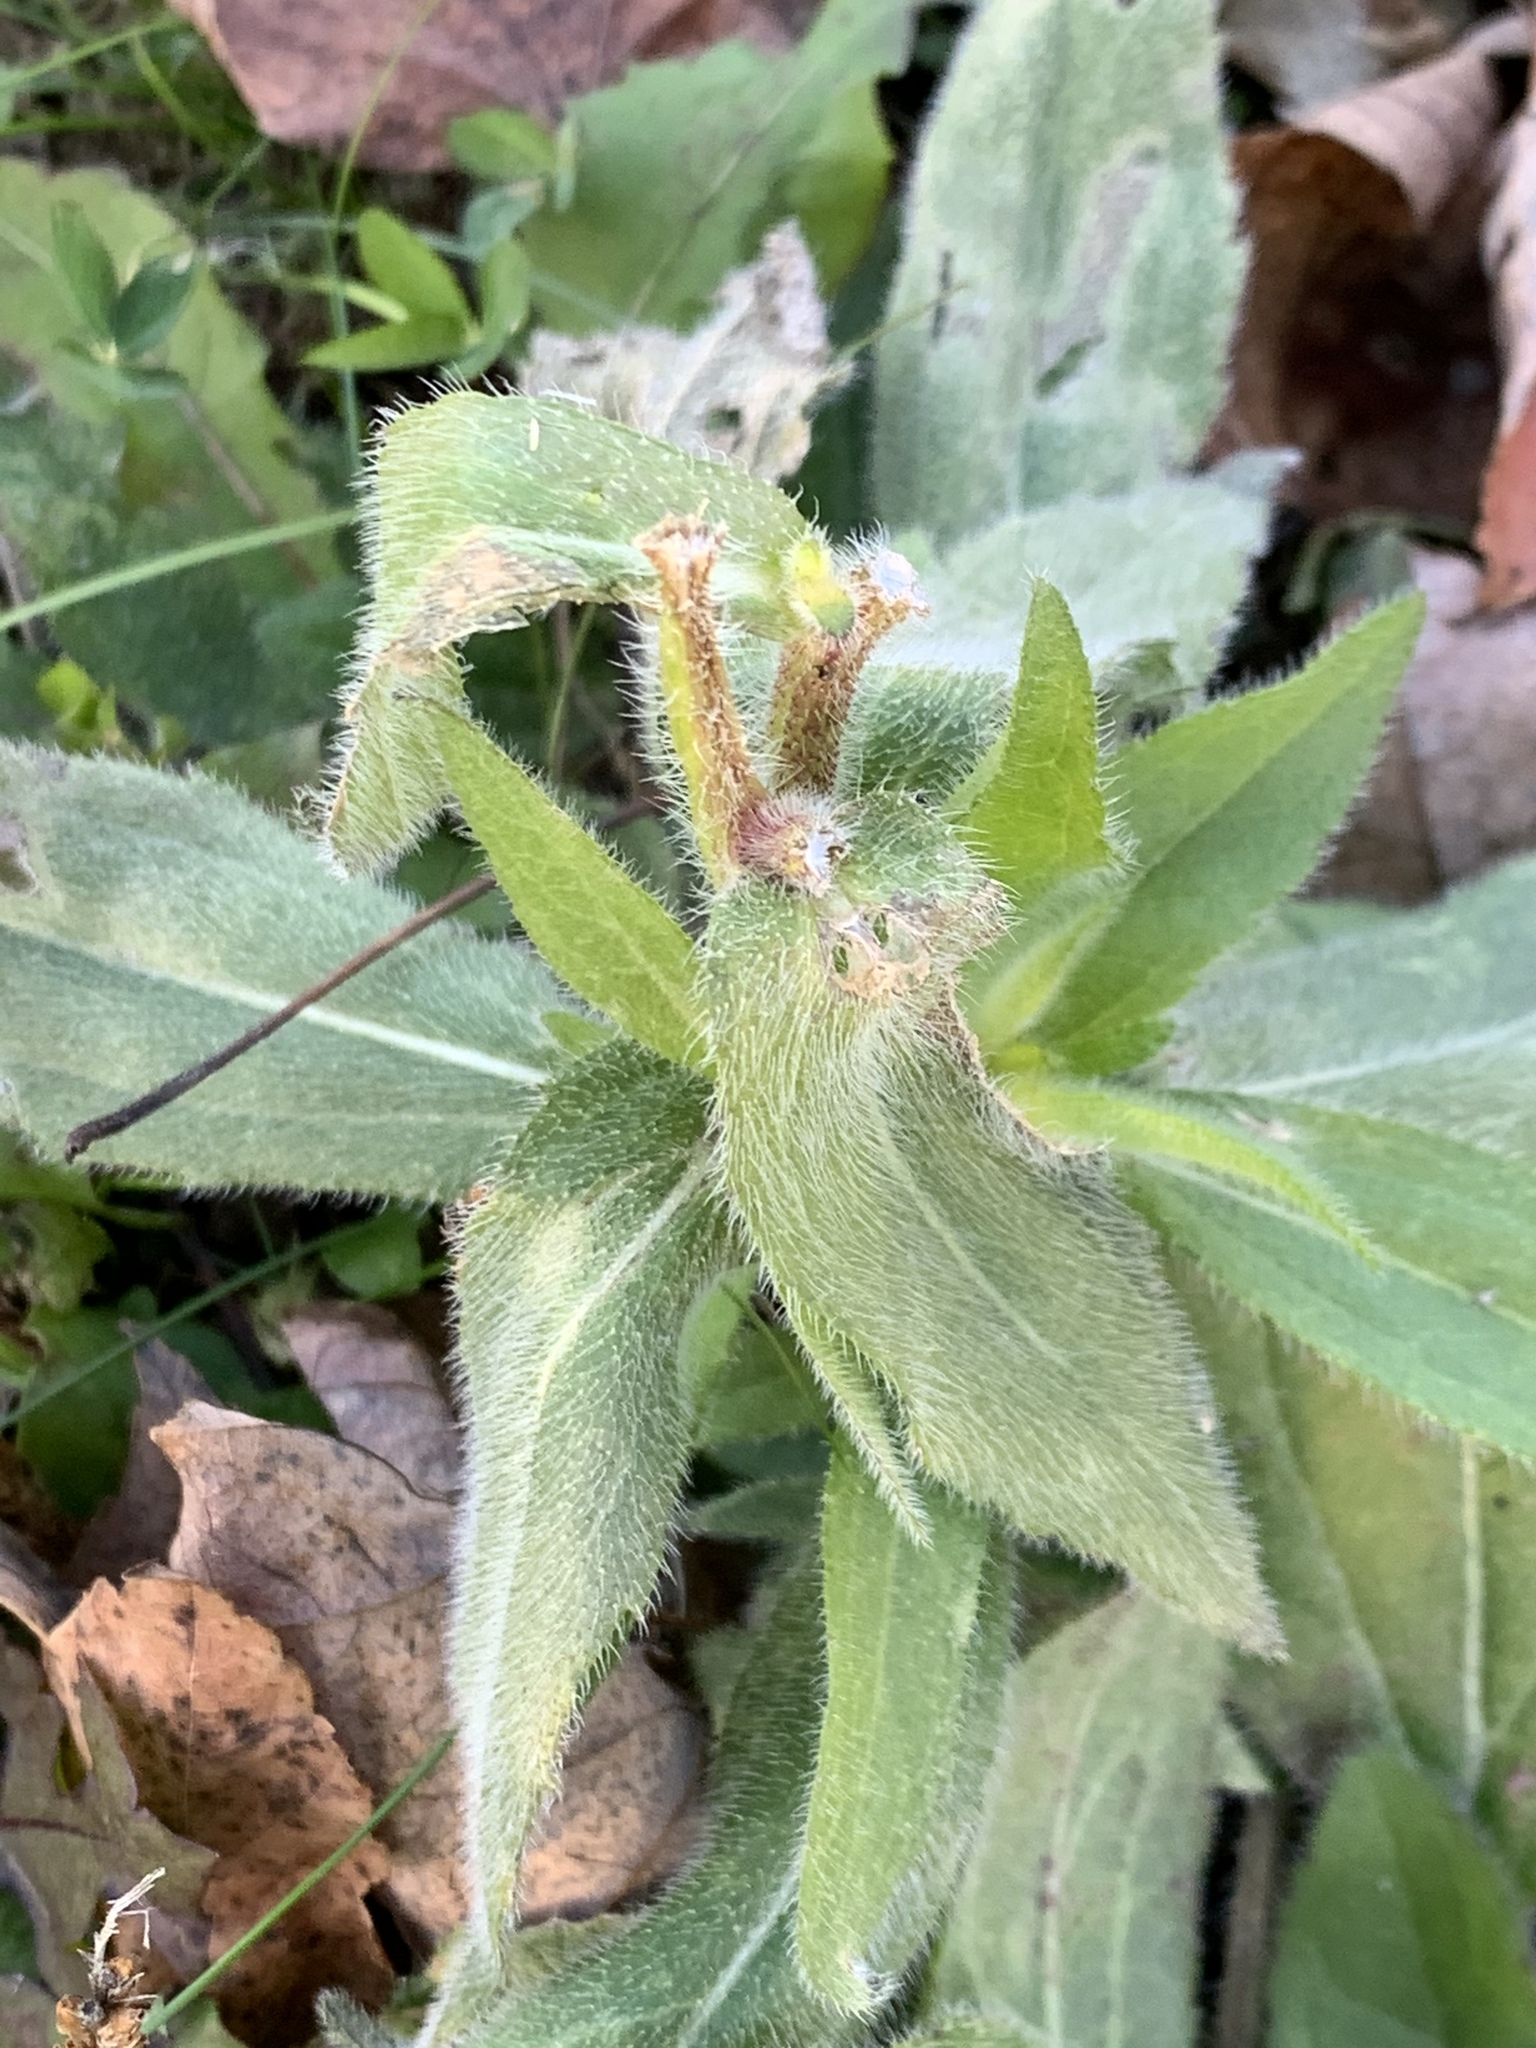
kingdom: Plantae
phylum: Tracheophyta
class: Magnoliopsida
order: Asterales
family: Asteraceae
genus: Rudbeckia
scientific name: Rudbeckia hirta
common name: Black-eyed-susan
